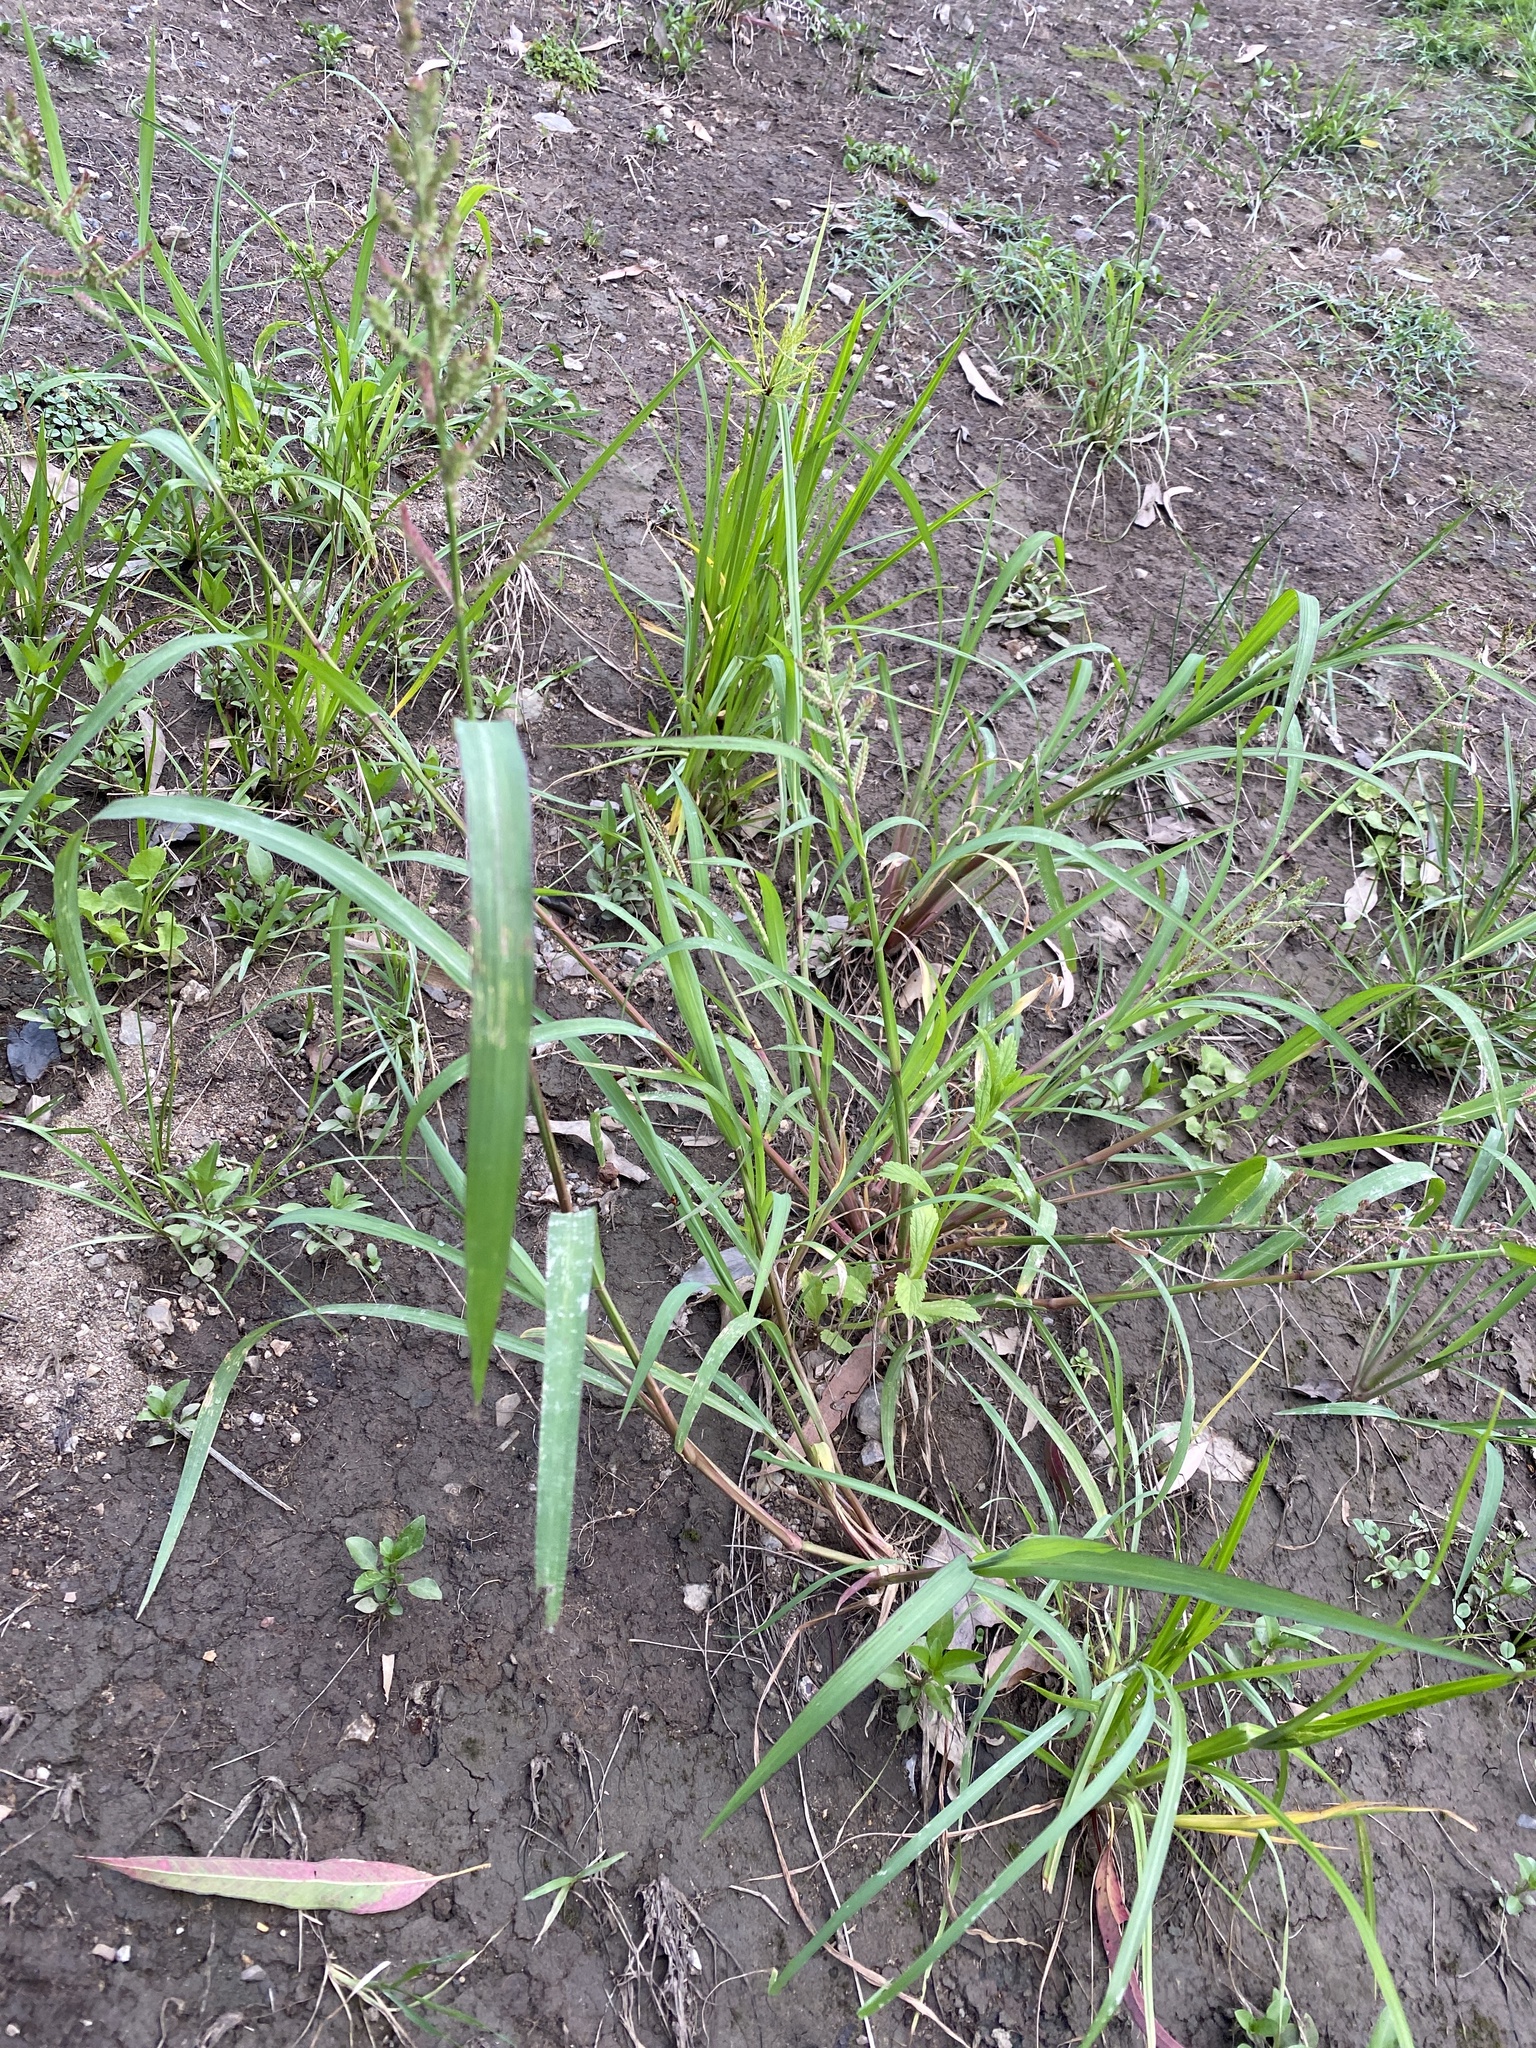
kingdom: Plantae
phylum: Tracheophyta
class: Liliopsida
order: Poales
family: Poaceae
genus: Echinochloa
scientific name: Echinochloa colonum
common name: Jungle rice
